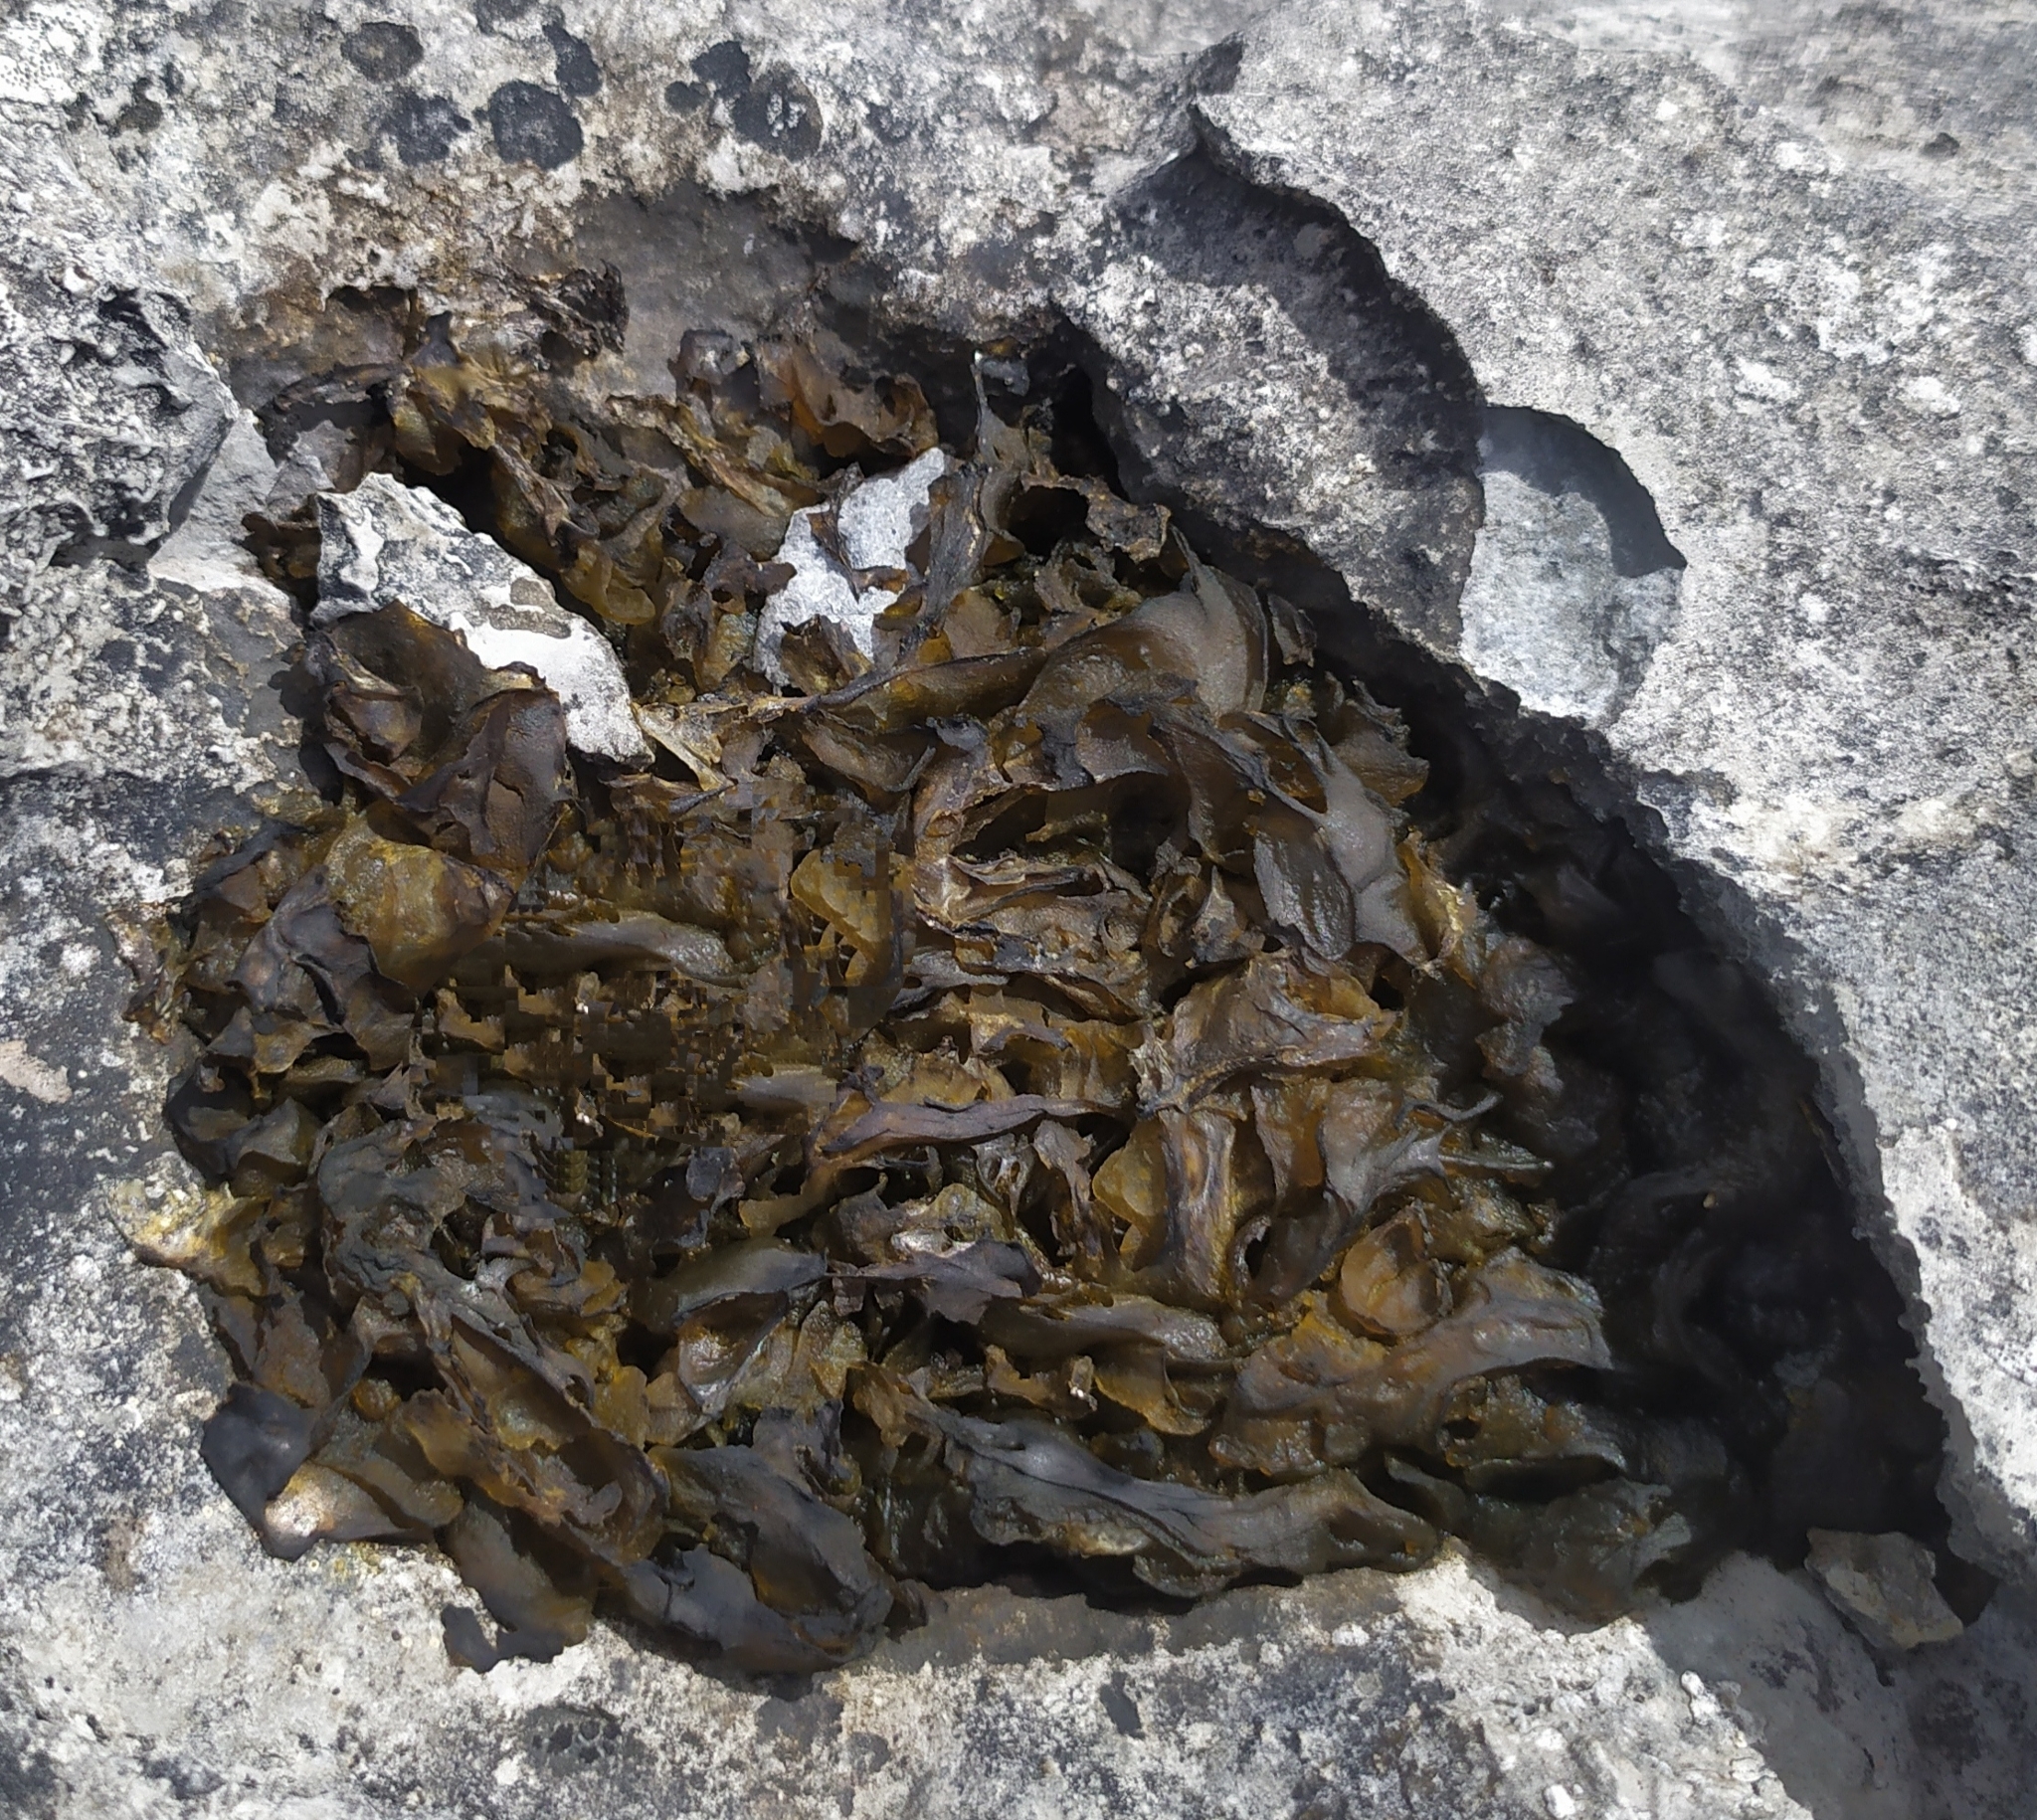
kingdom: Bacteria
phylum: Cyanobacteria
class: Cyanobacteriia
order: Cyanobacteriales
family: Nostocaceae
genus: Nostoc
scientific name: Nostoc commune
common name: Star jelly
